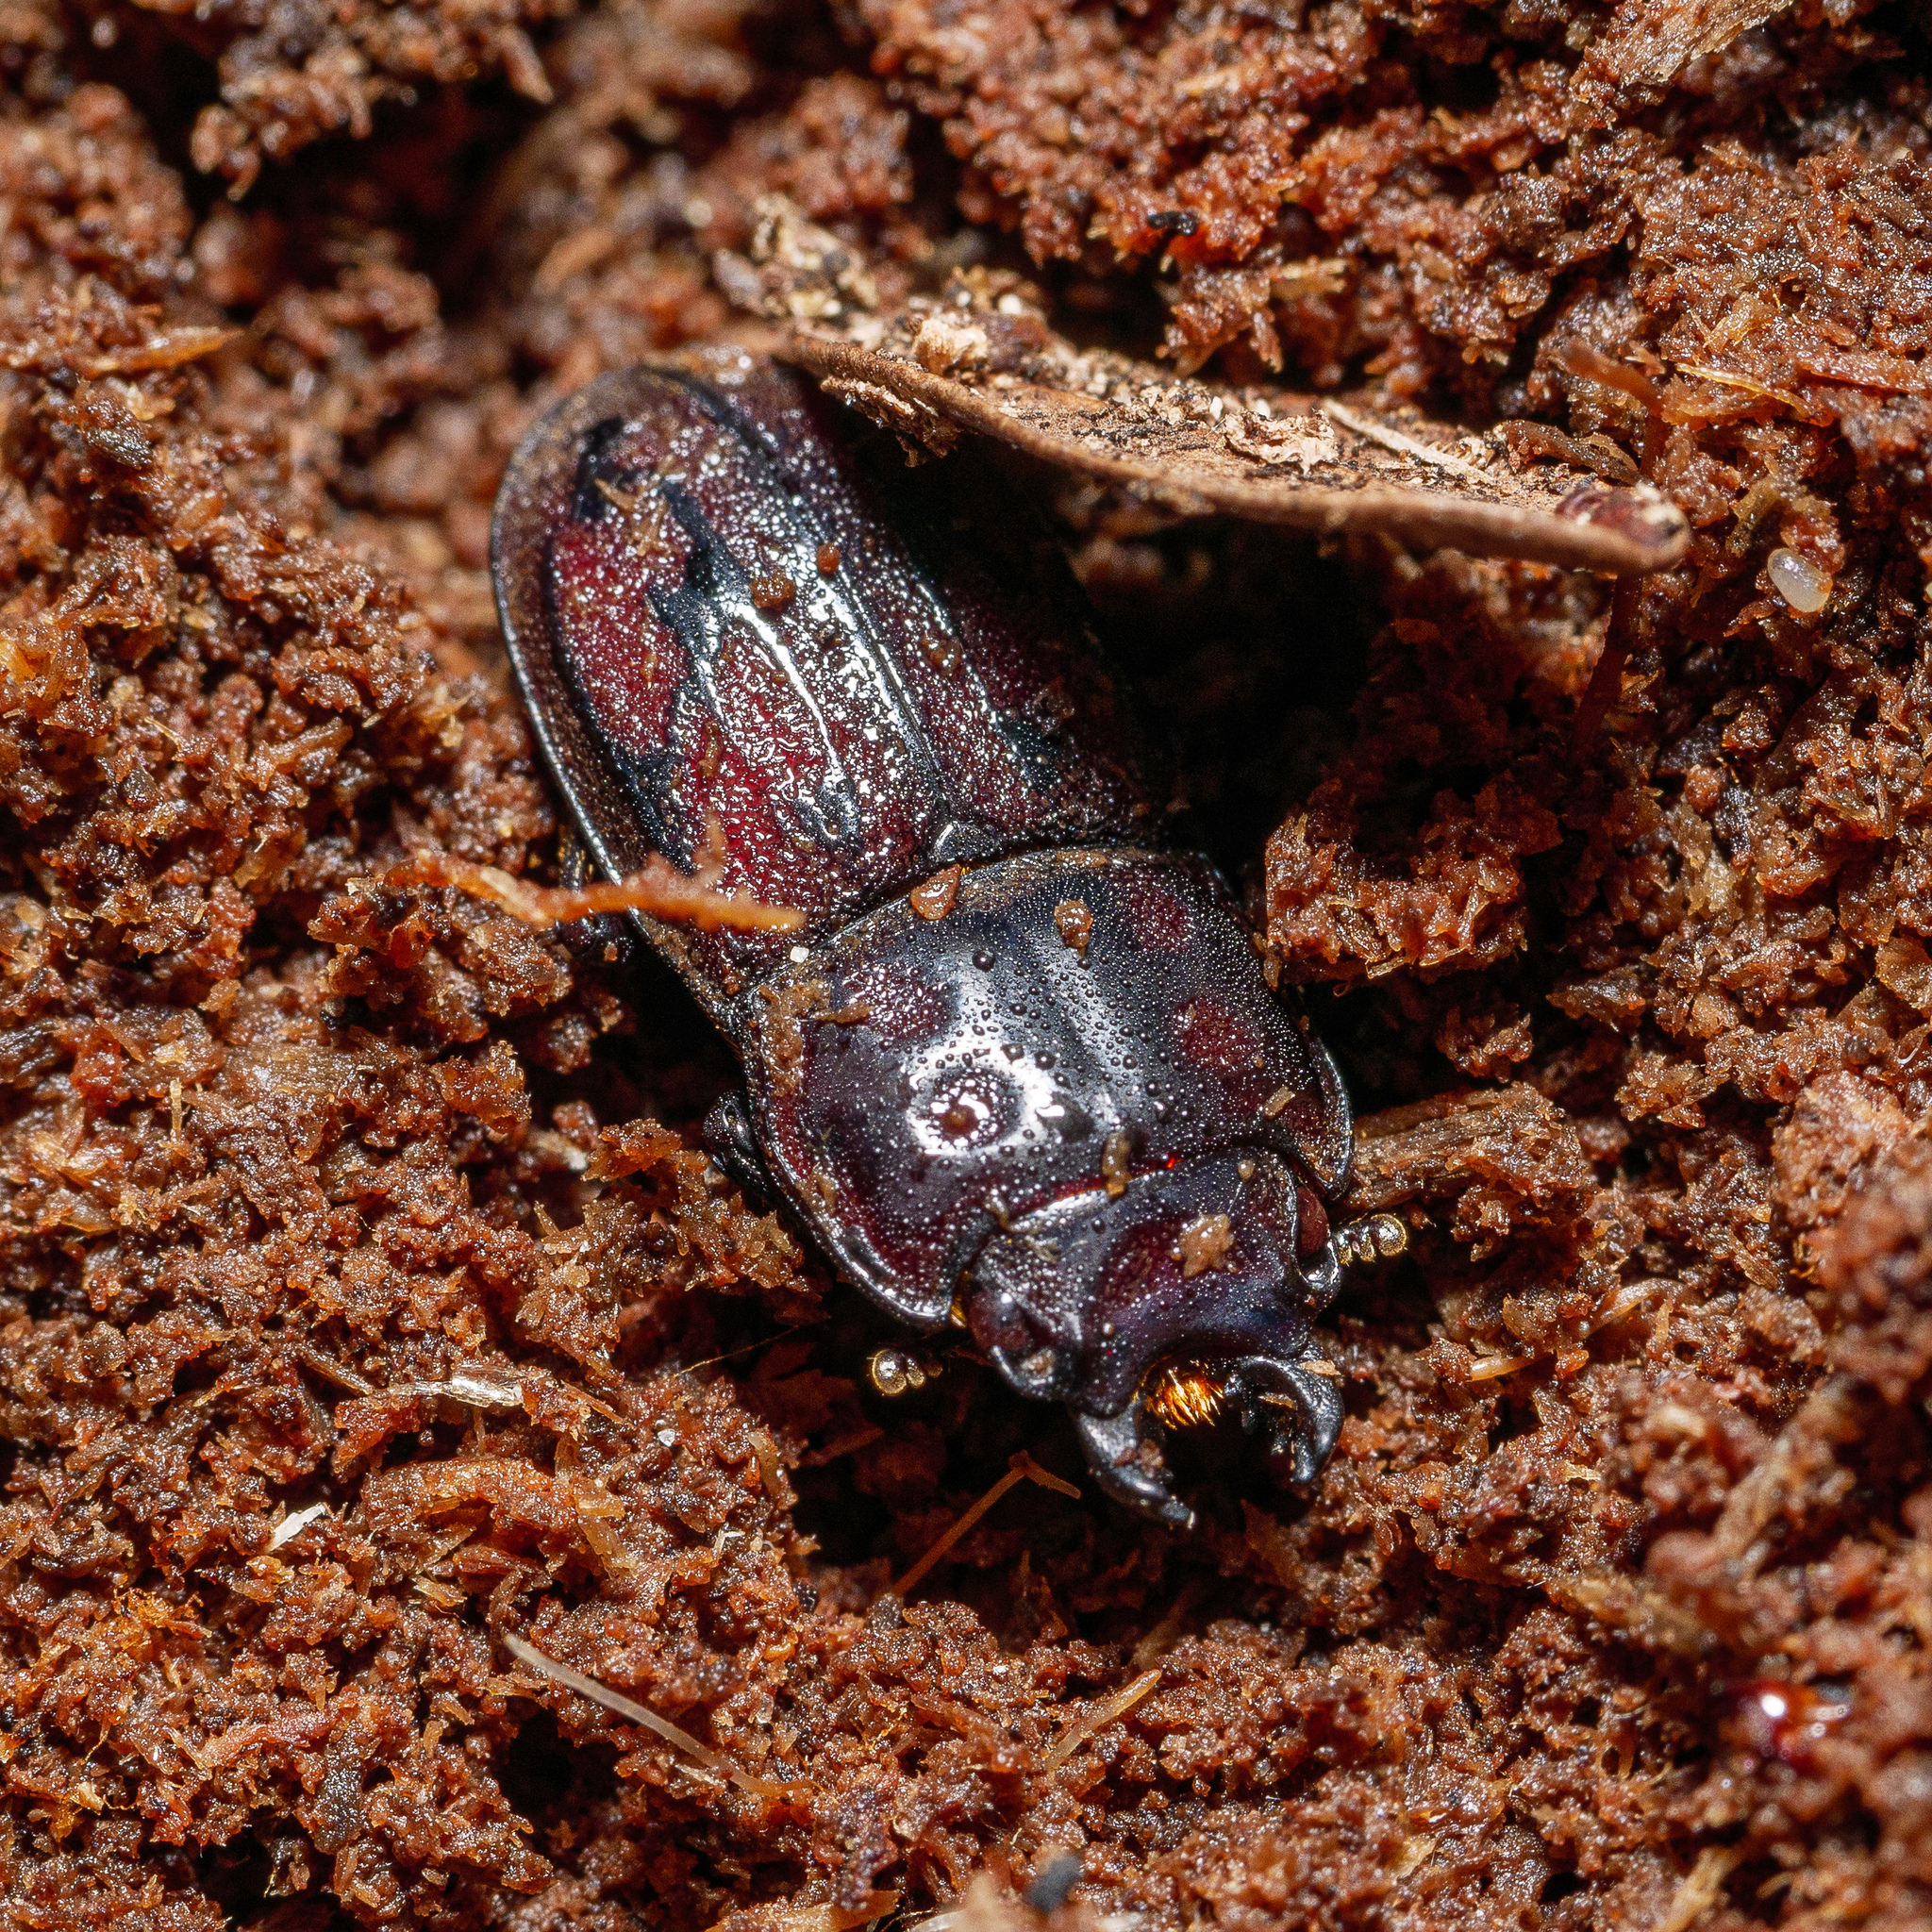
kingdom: Animalia
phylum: Arthropoda
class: Insecta
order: Coleoptera
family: Lucanidae
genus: Paralissotes
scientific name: Paralissotes reticulatus
